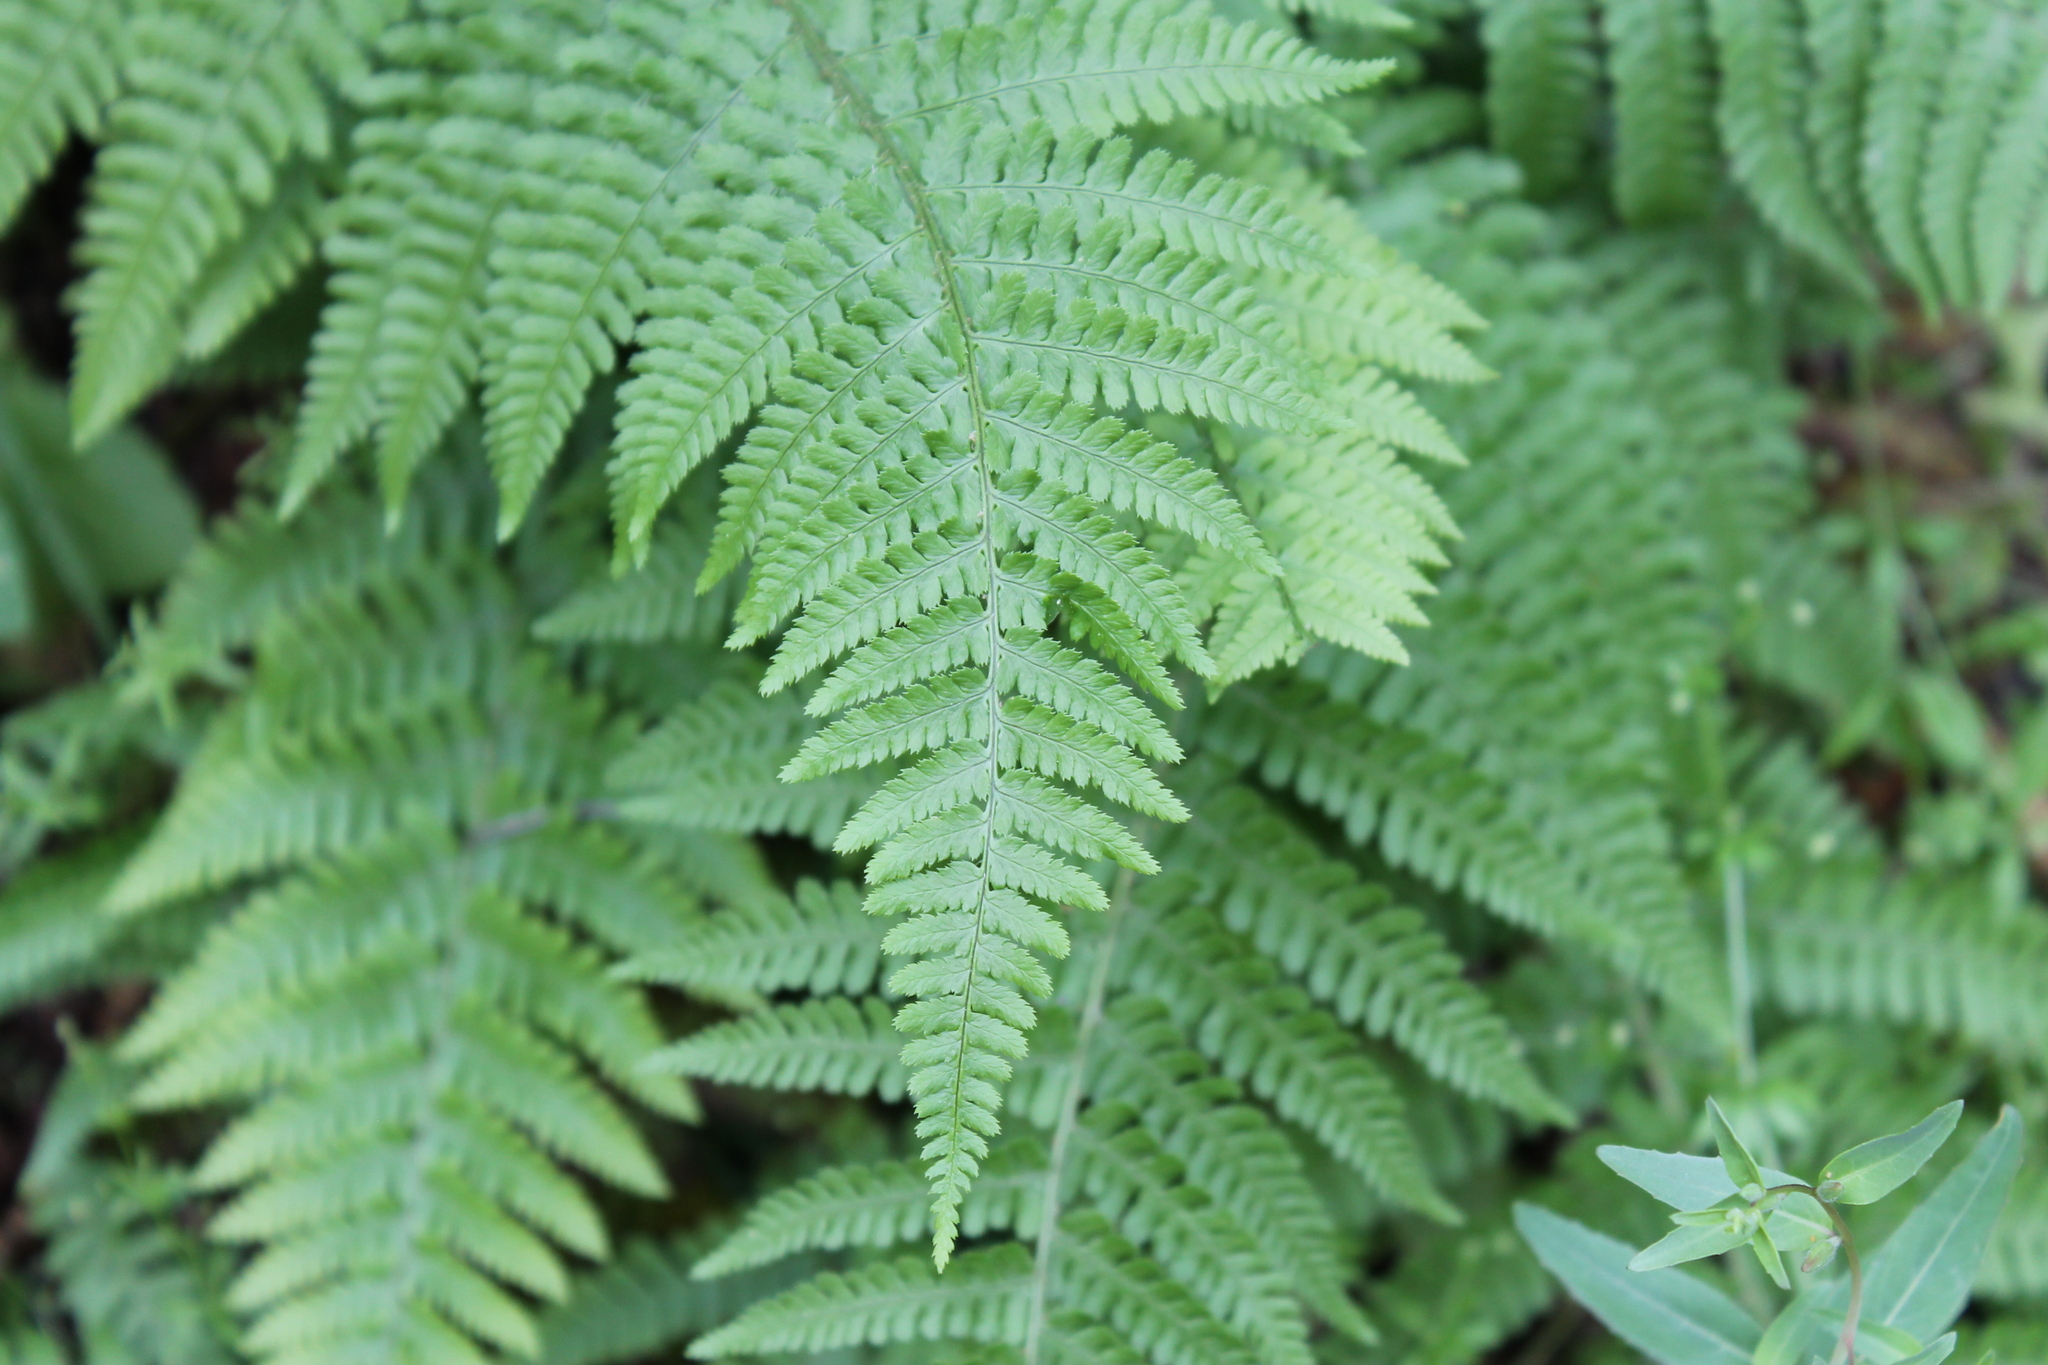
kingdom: Plantae
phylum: Tracheophyta
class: Polypodiopsida
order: Polypodiales
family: Dryopteridaceae
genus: Dryopteris
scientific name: Dryopteris arguta
